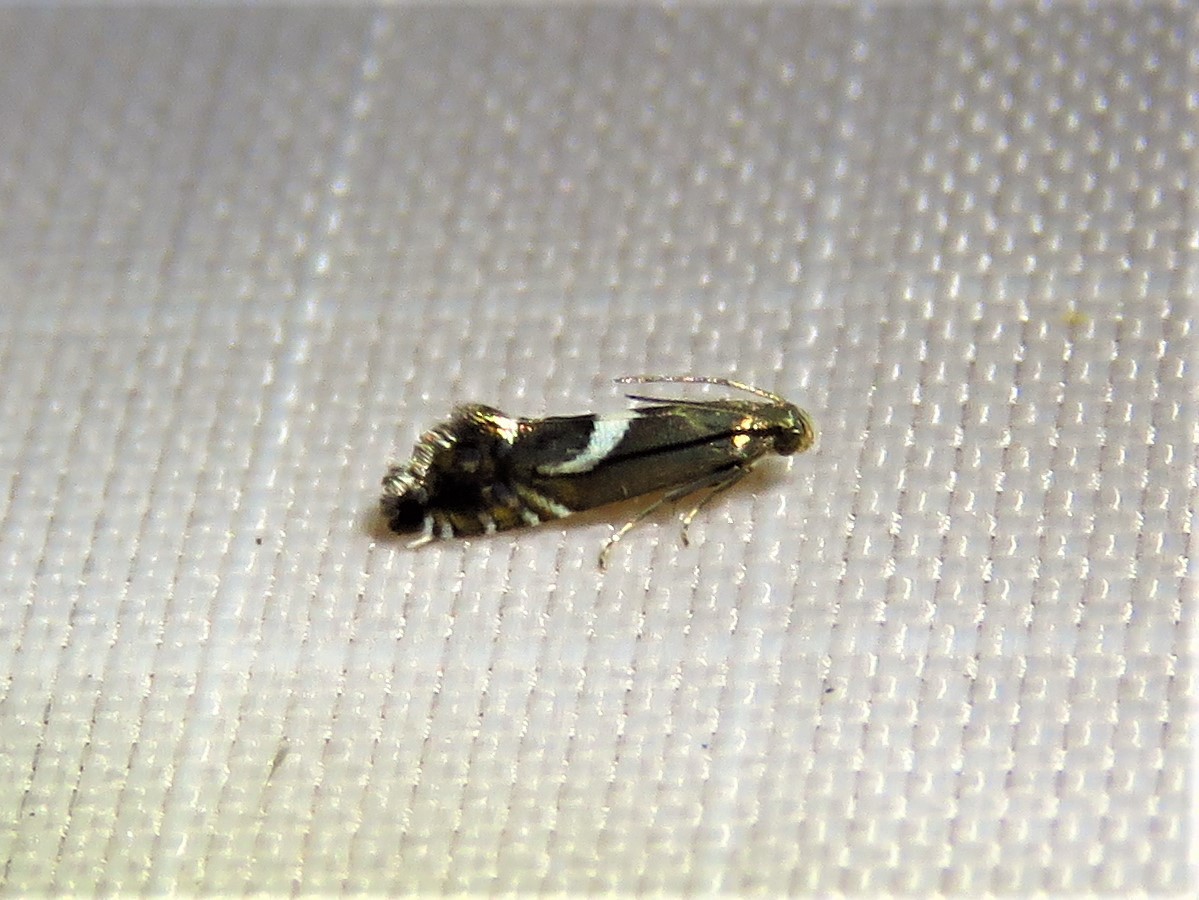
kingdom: Animalia
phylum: Arthropoda
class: Insecta
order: Lepidoptera
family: Glyphipterigidae
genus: Glyphipterix
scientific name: Glyphipterix Diploschizia impigritella
